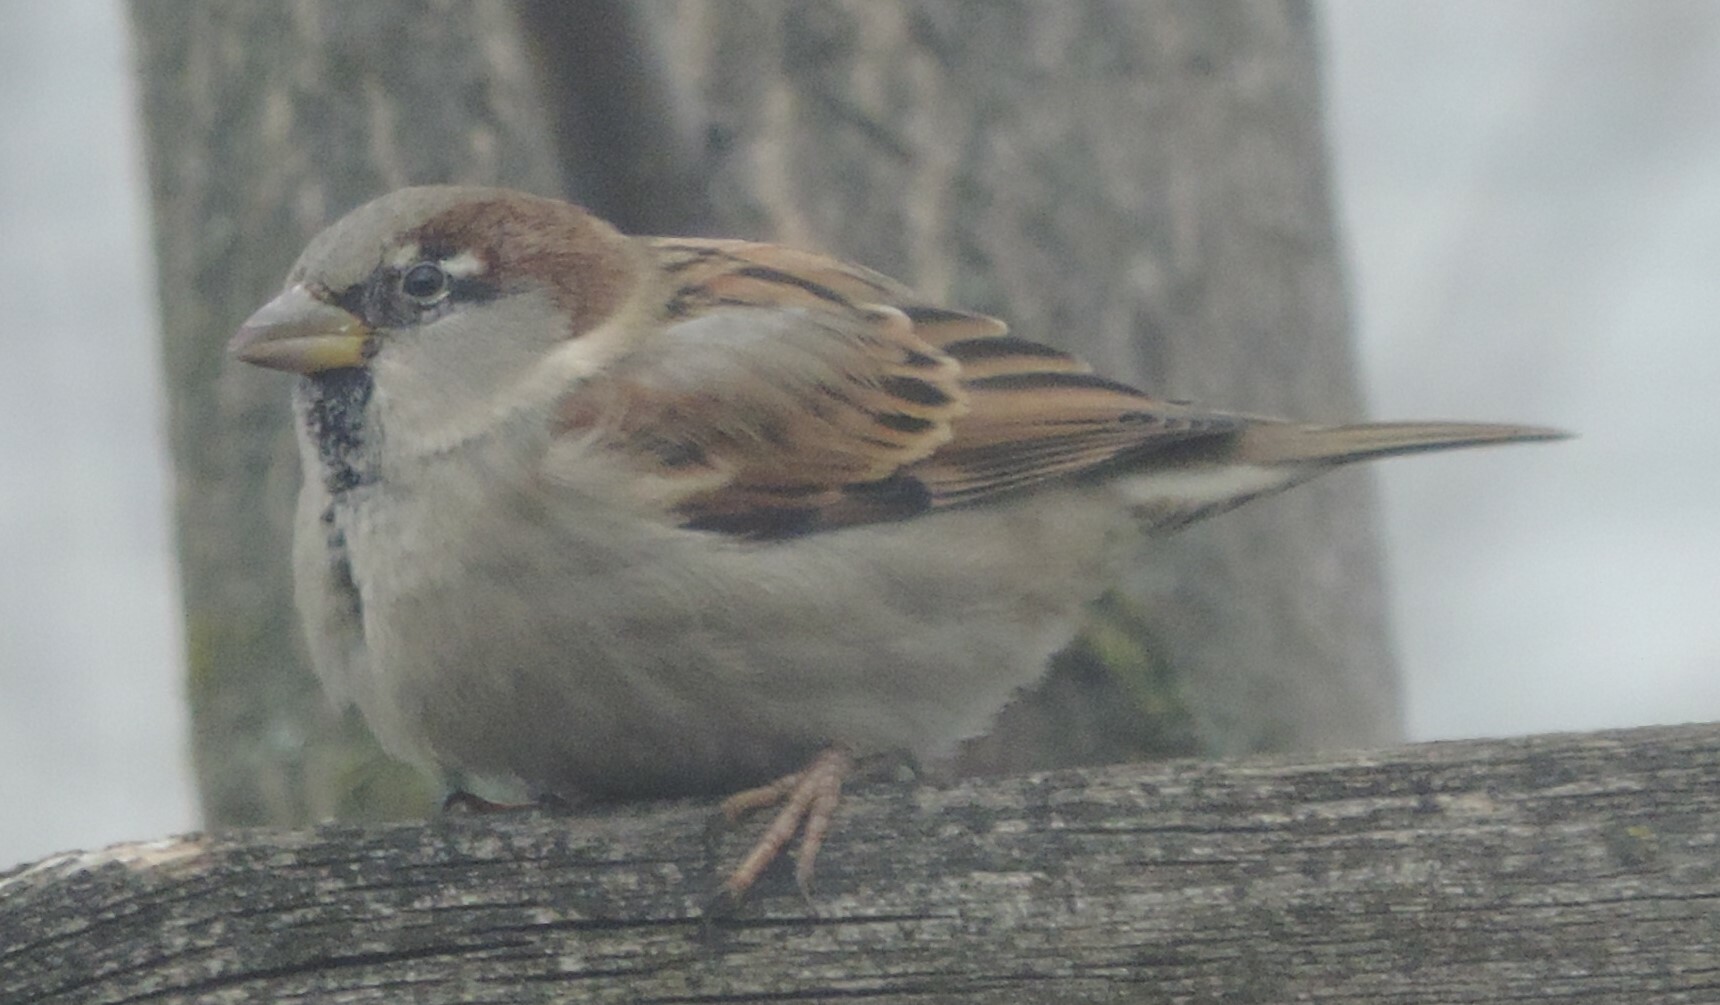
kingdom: Animalia
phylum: Chordata
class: Aves
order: Passeriformes
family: Passeridae
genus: Passer
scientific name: Passer domesticus
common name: House sparrow
